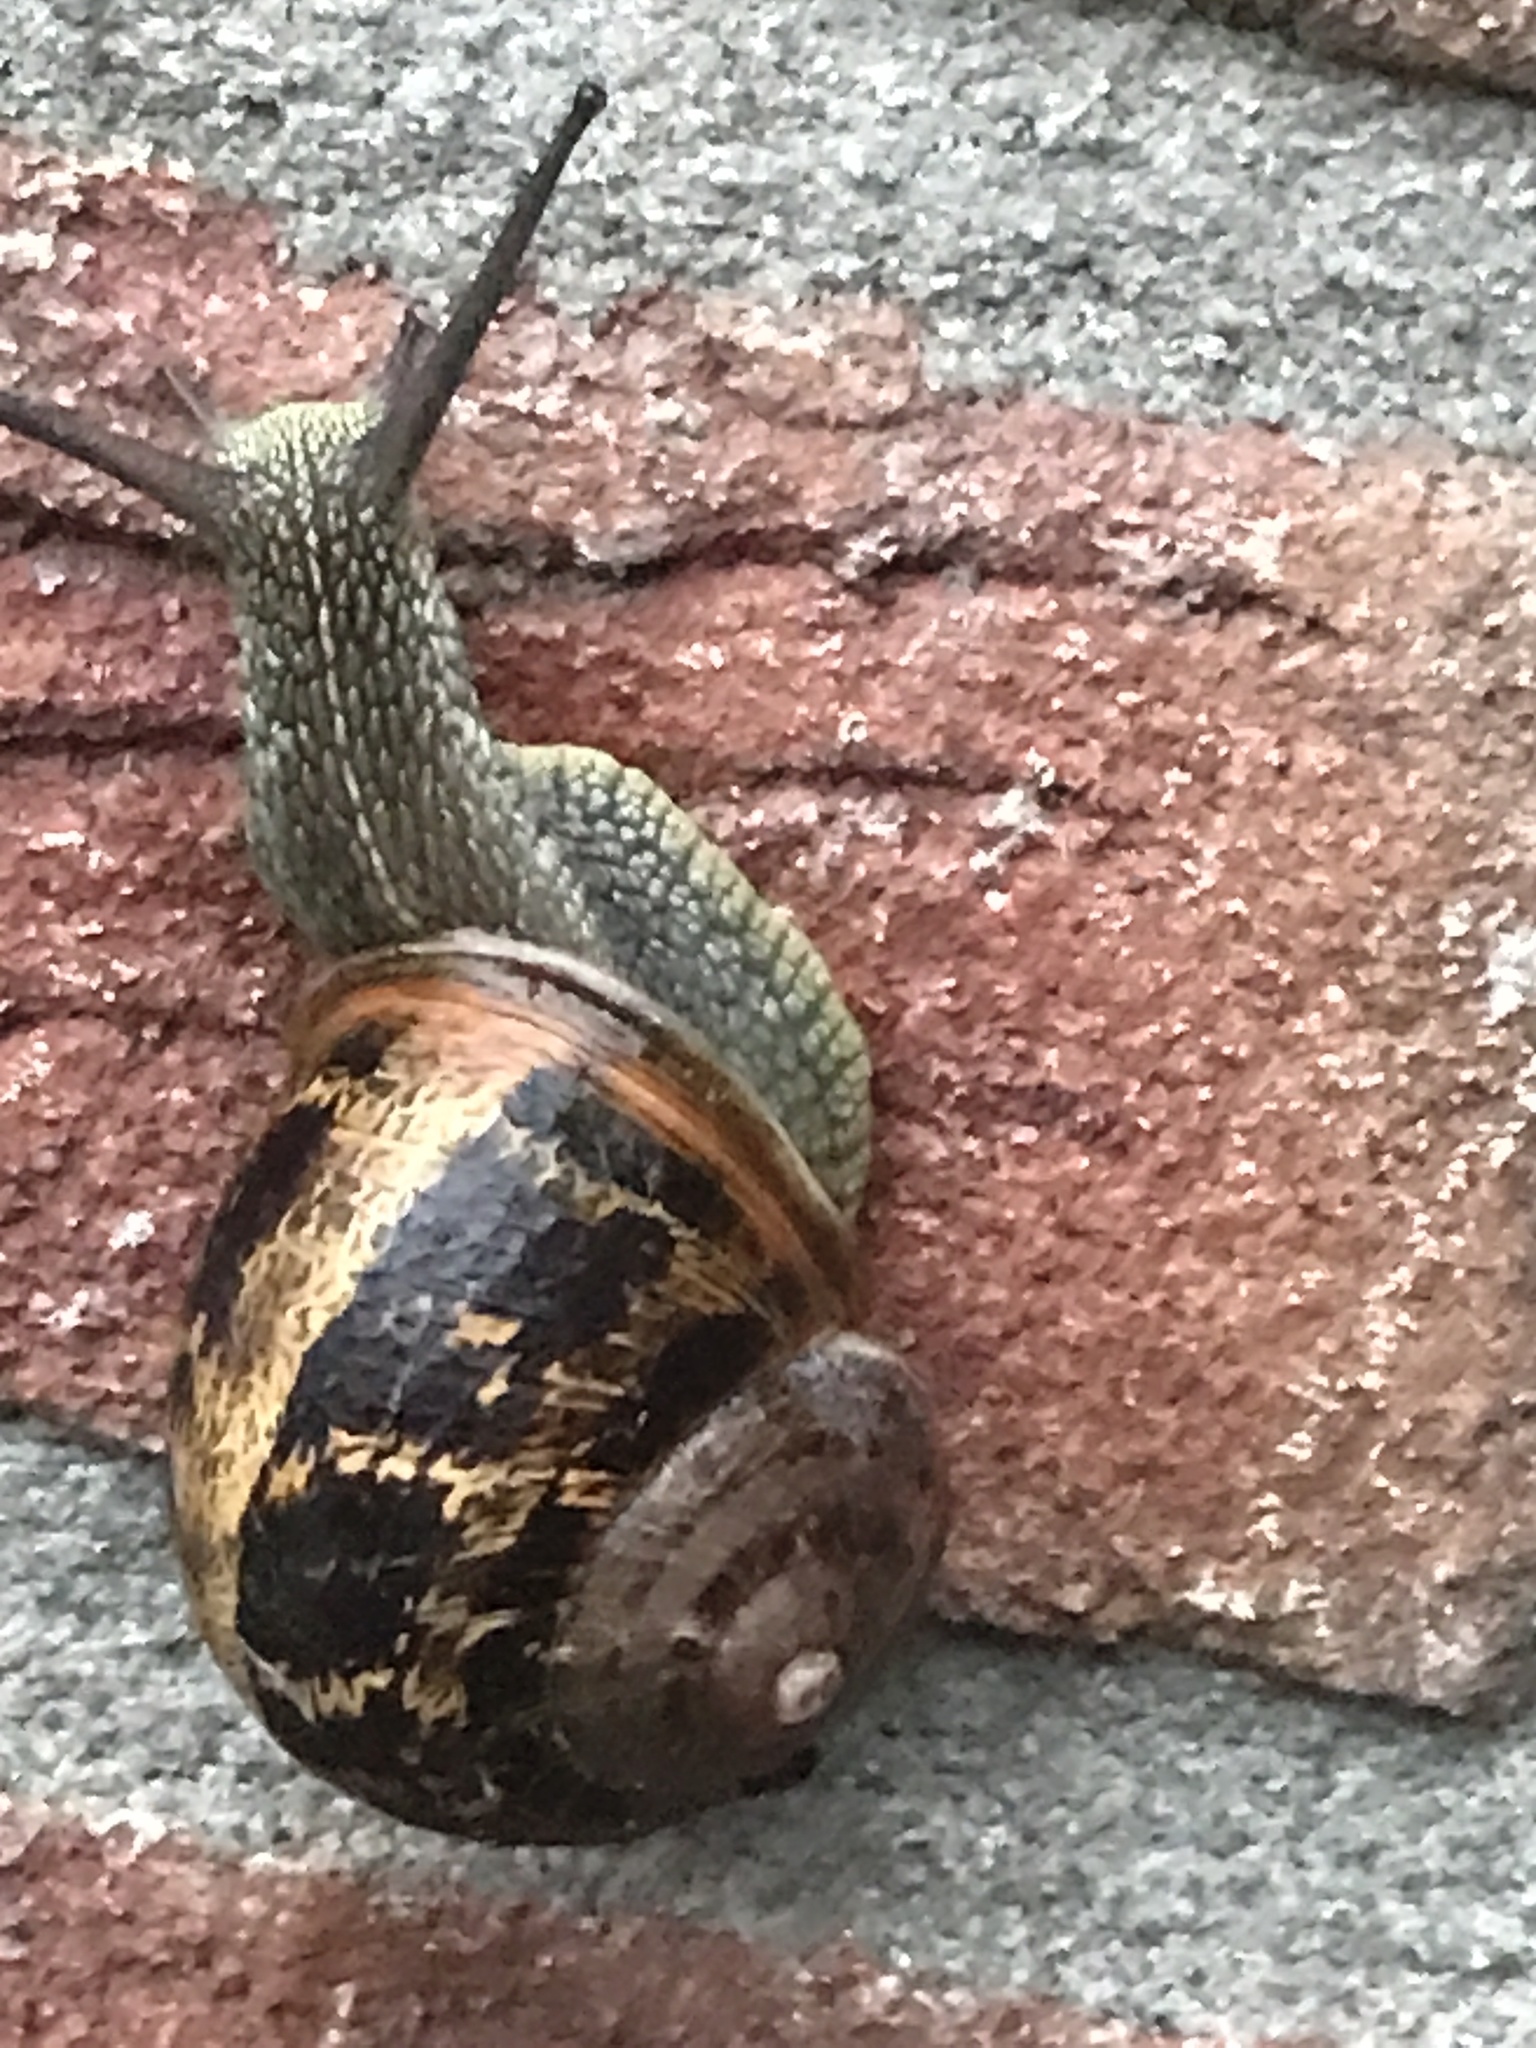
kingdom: Animalia
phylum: Mollusca
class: Gastropoda
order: Stylommatophora
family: Helicidae
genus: Cornu
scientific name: Cornu aspersum
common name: Brown garden snail
